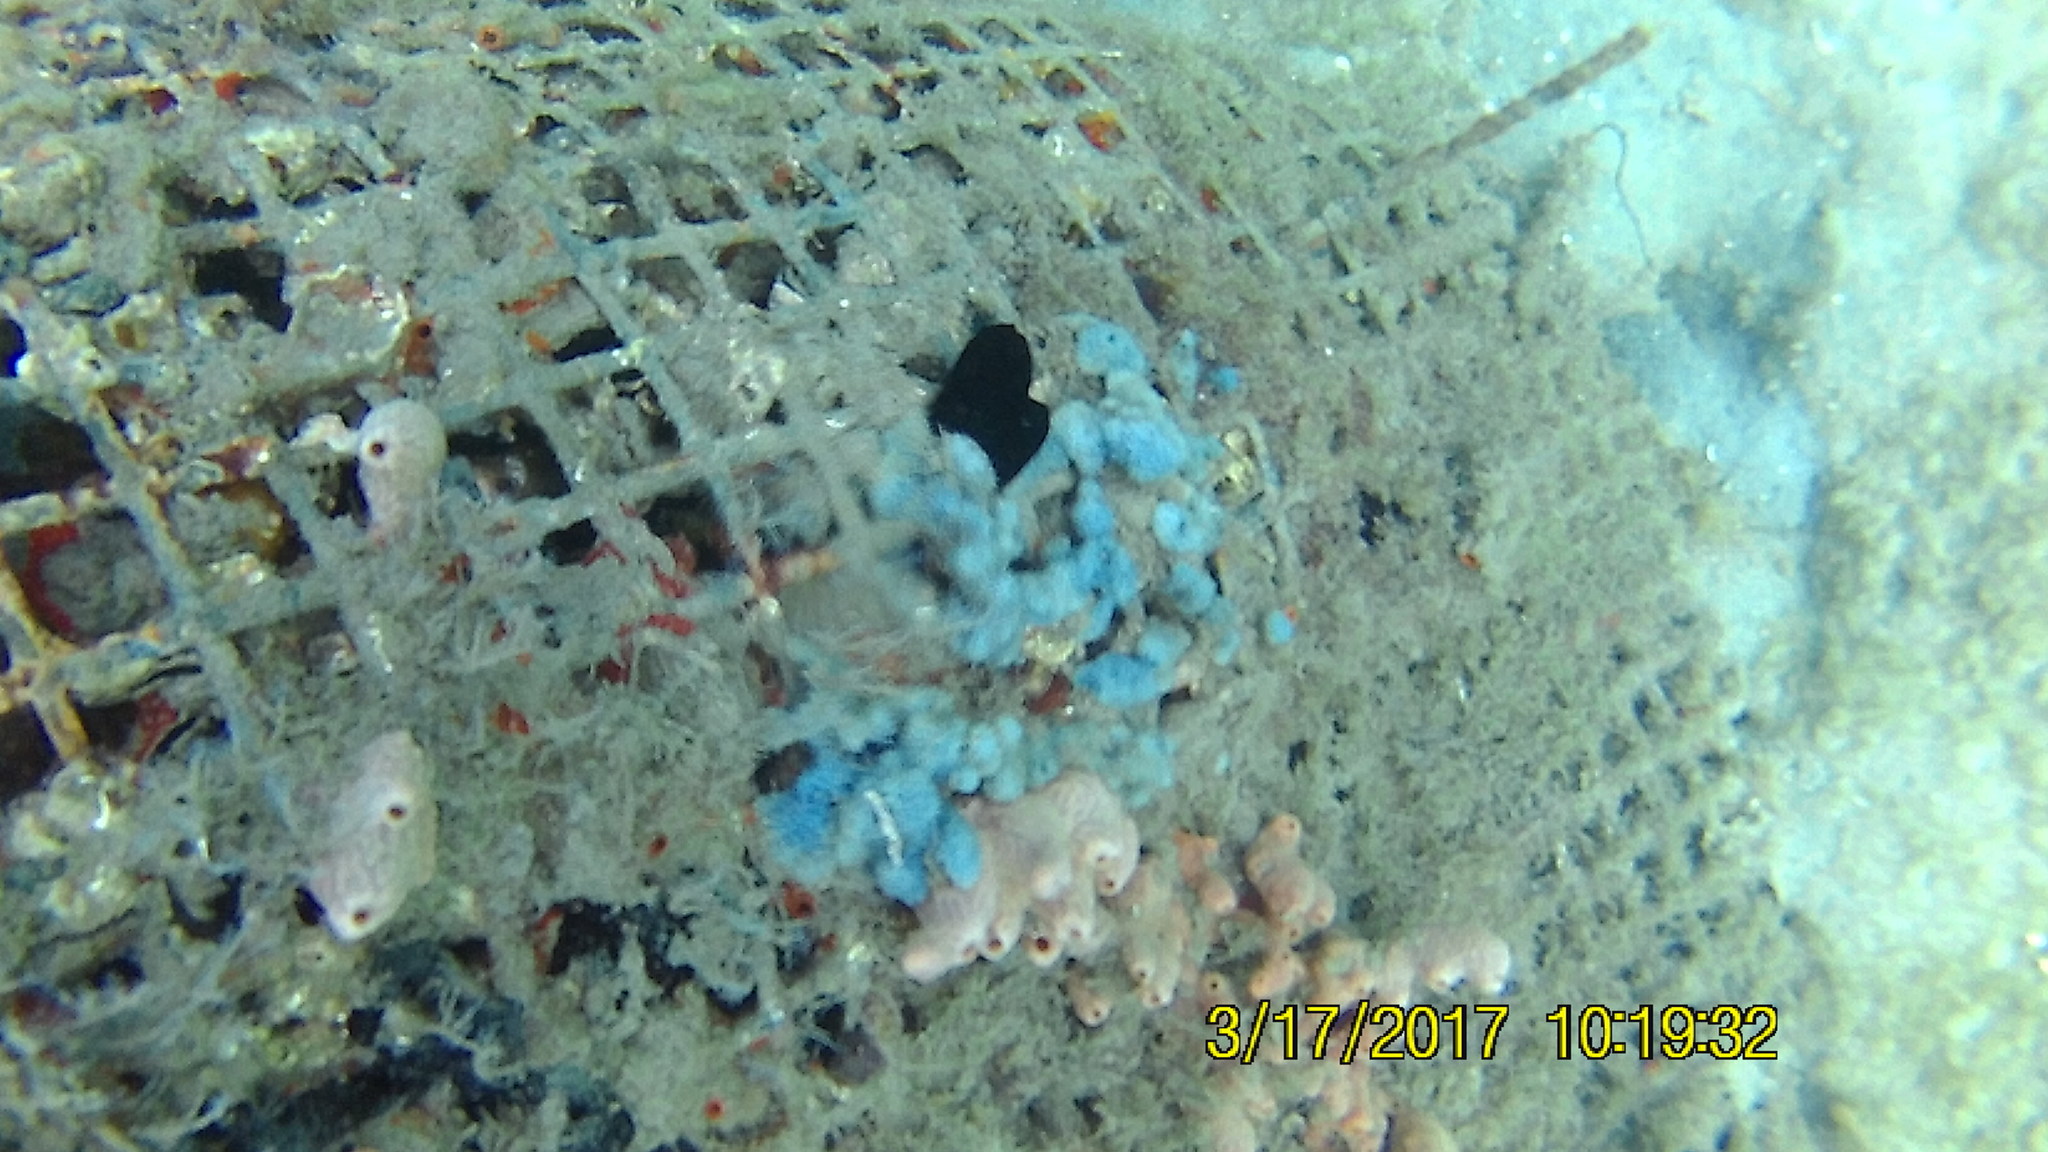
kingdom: Animalia
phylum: Porifera
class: Demospongiae
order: Dictyoceratida
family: Dysideidae
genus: Dysidea
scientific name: Dysidea etheria
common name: Heavenly sponge
